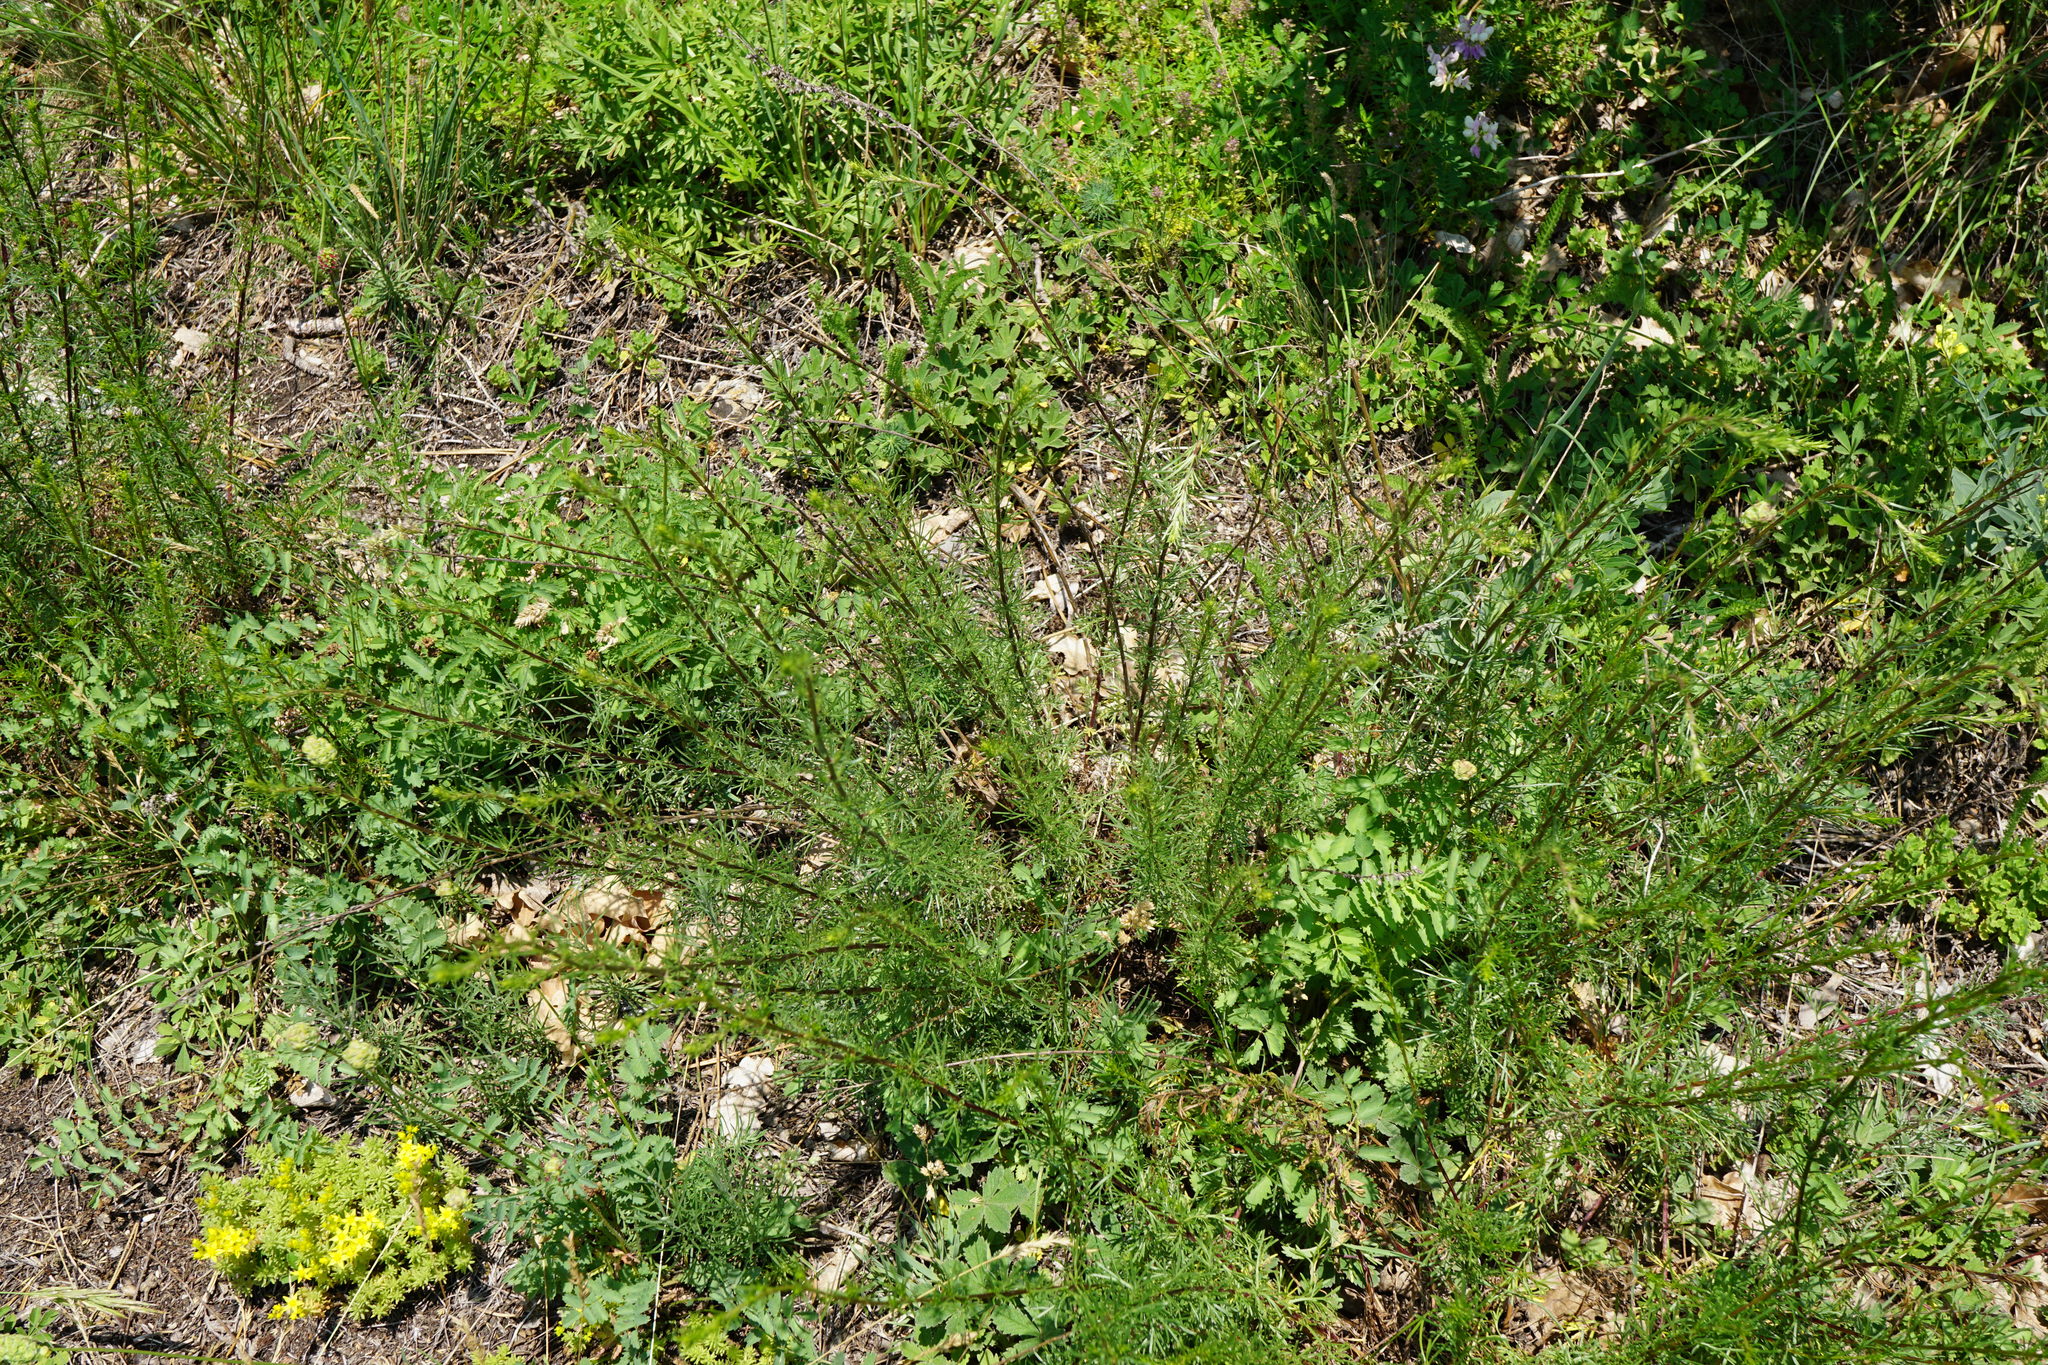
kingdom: Plantae
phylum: Tracheophyta
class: Magnoliopsida
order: Asterales
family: Asteraceae
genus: Artemisia
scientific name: Artemisia campestris
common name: Field wormwood
